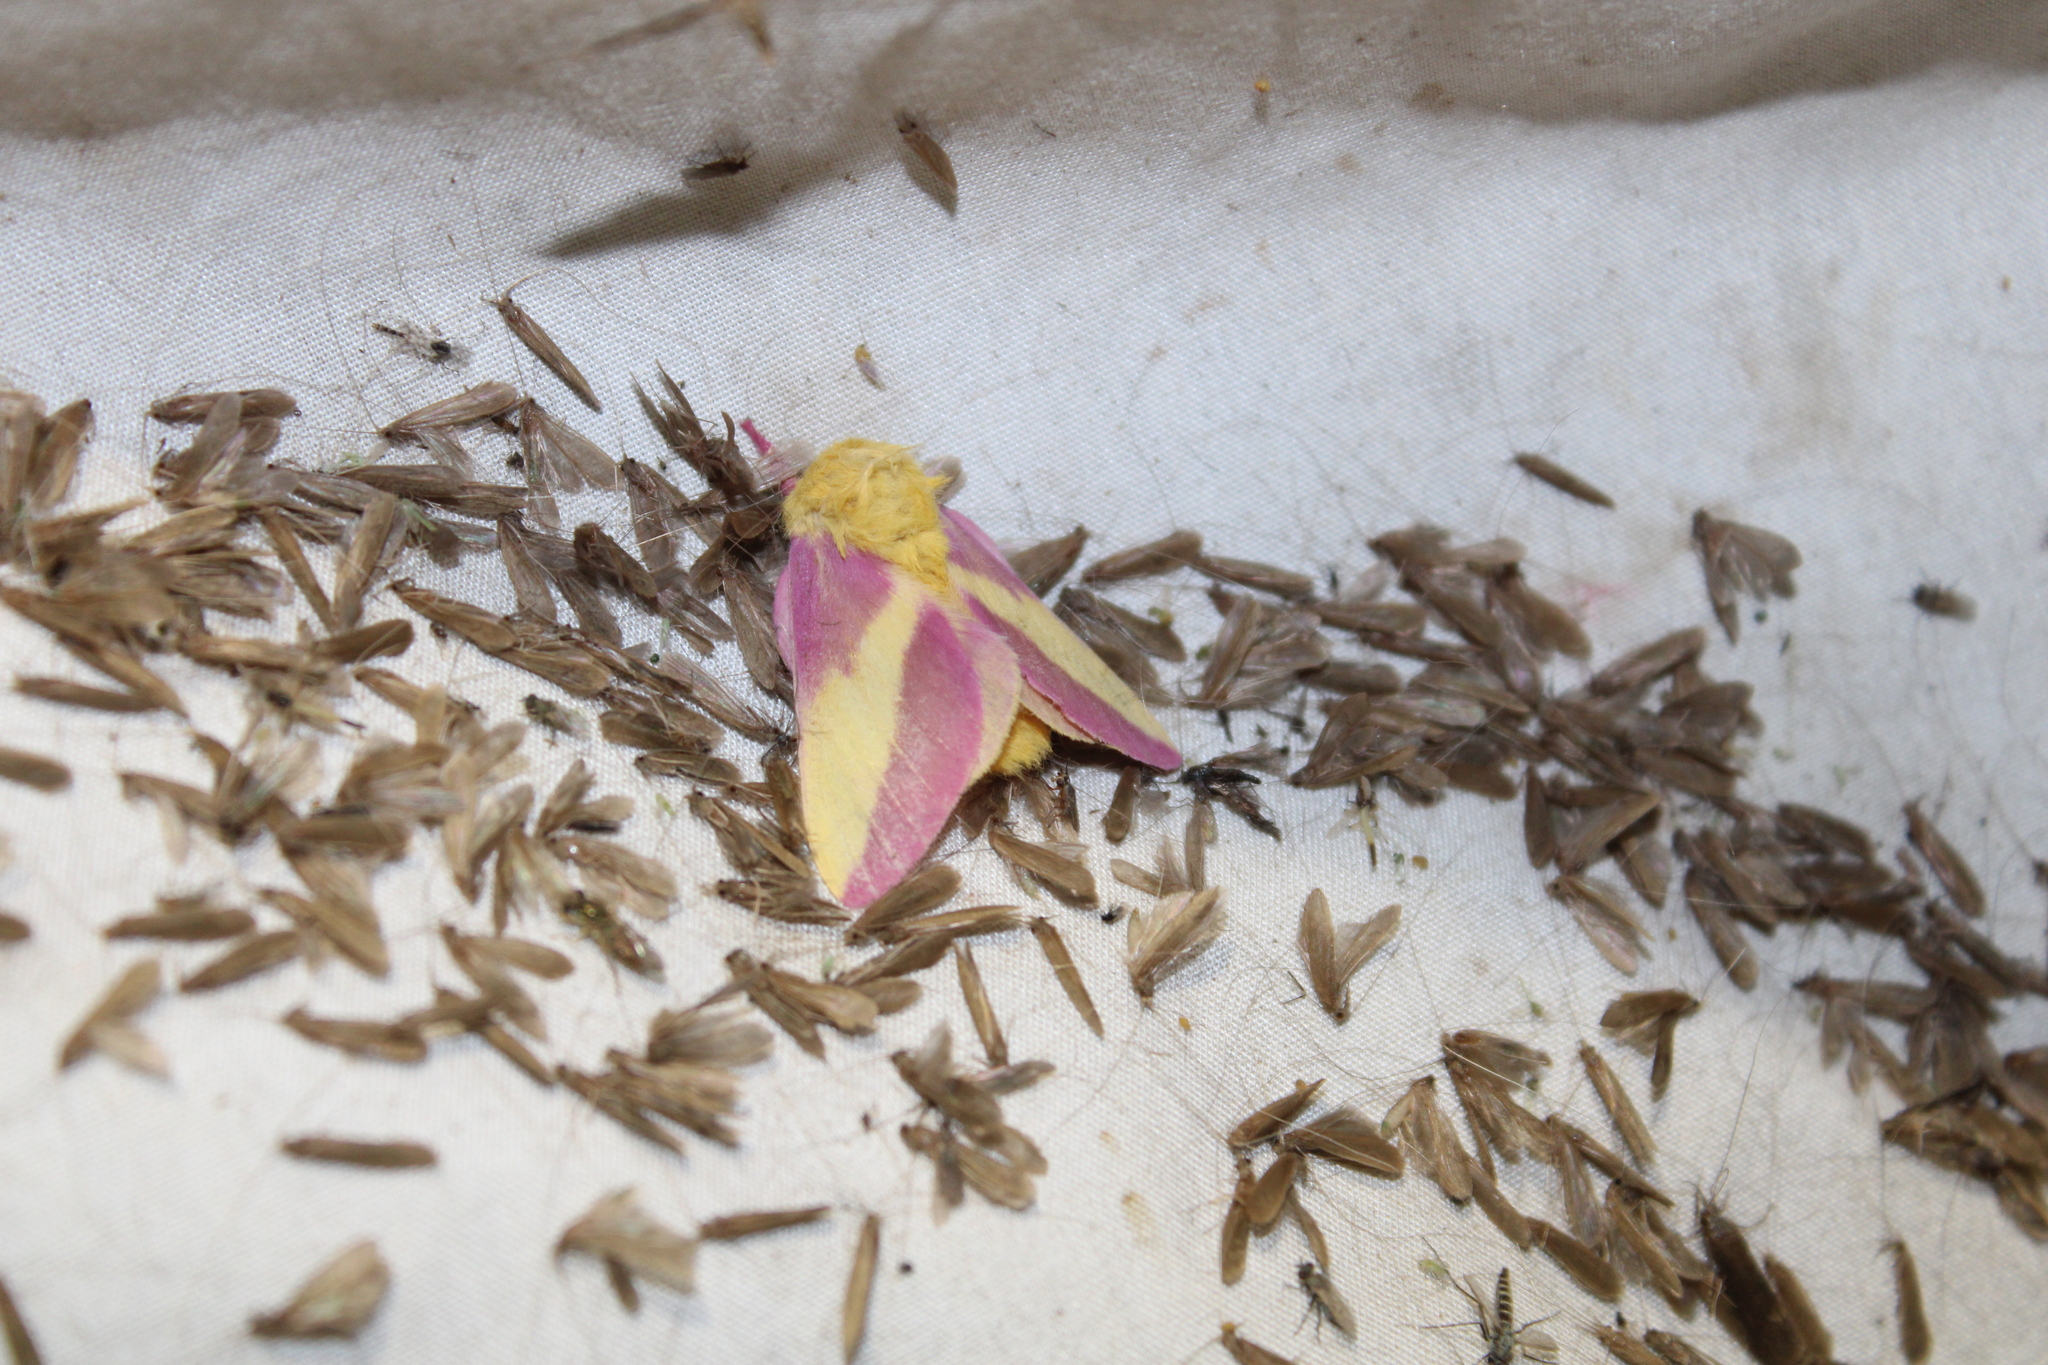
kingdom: Animalia
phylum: Arthropoda
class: Insecta
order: Lepidoptera
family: Saturniidae
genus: Dryocampa
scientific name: Dryocampa rubicunda
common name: Rosy maple moth
